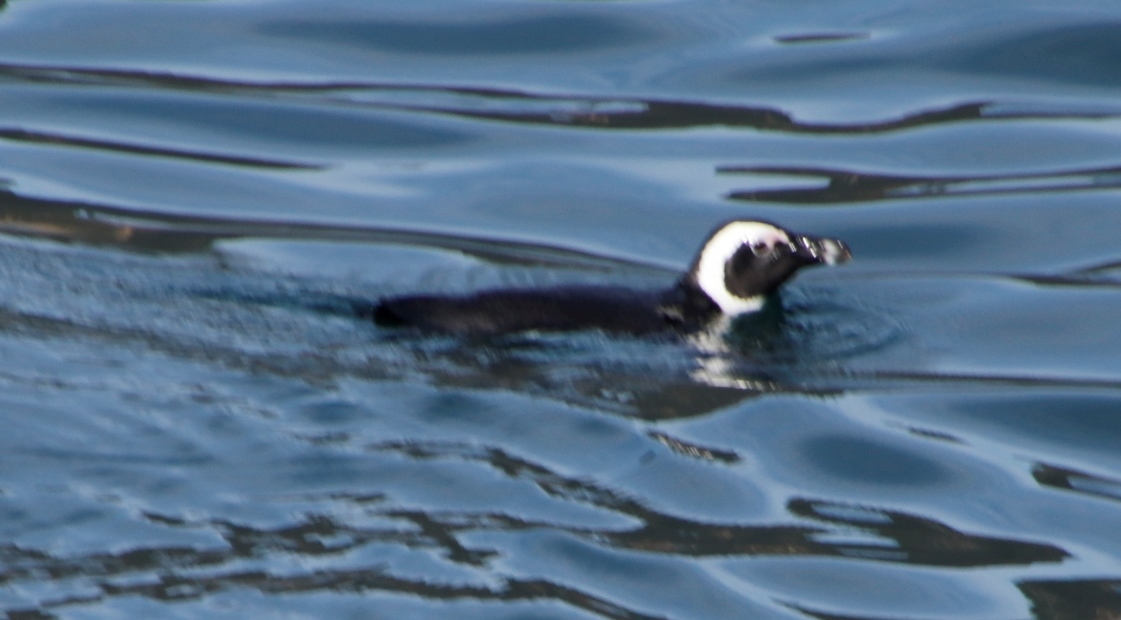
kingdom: Animalia
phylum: Chordata
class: Aves
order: Sphenisciformes
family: Spheniscidae
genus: Spheniscus
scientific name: Spheniscus demersus
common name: African penguin
